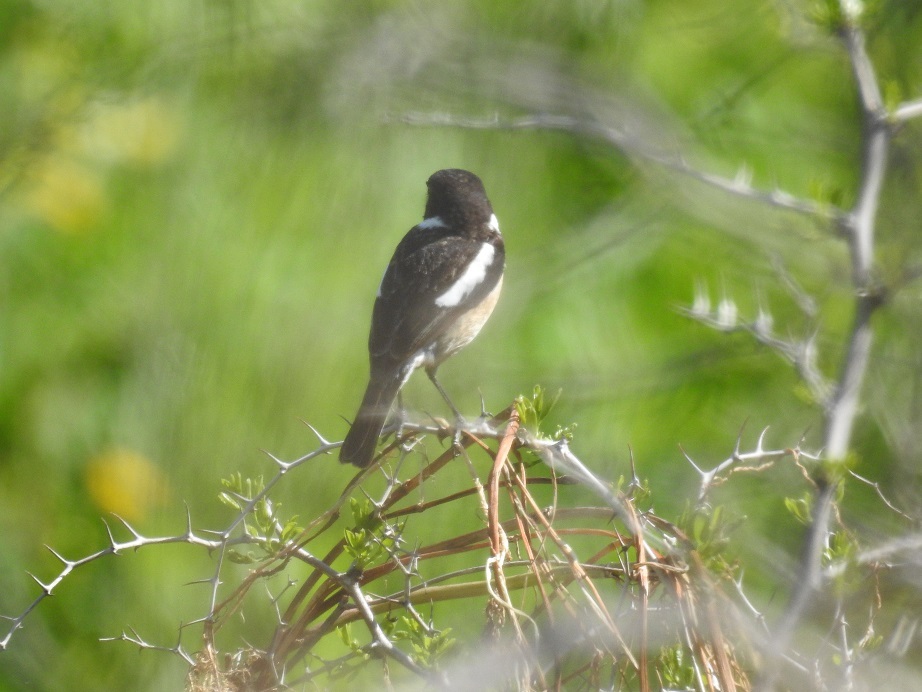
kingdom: Animalia
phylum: Chordata
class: Aves
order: Passeriformes
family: Muscicapidae
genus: Saxicola
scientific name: Saxicola rubicola
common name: European stonechat
